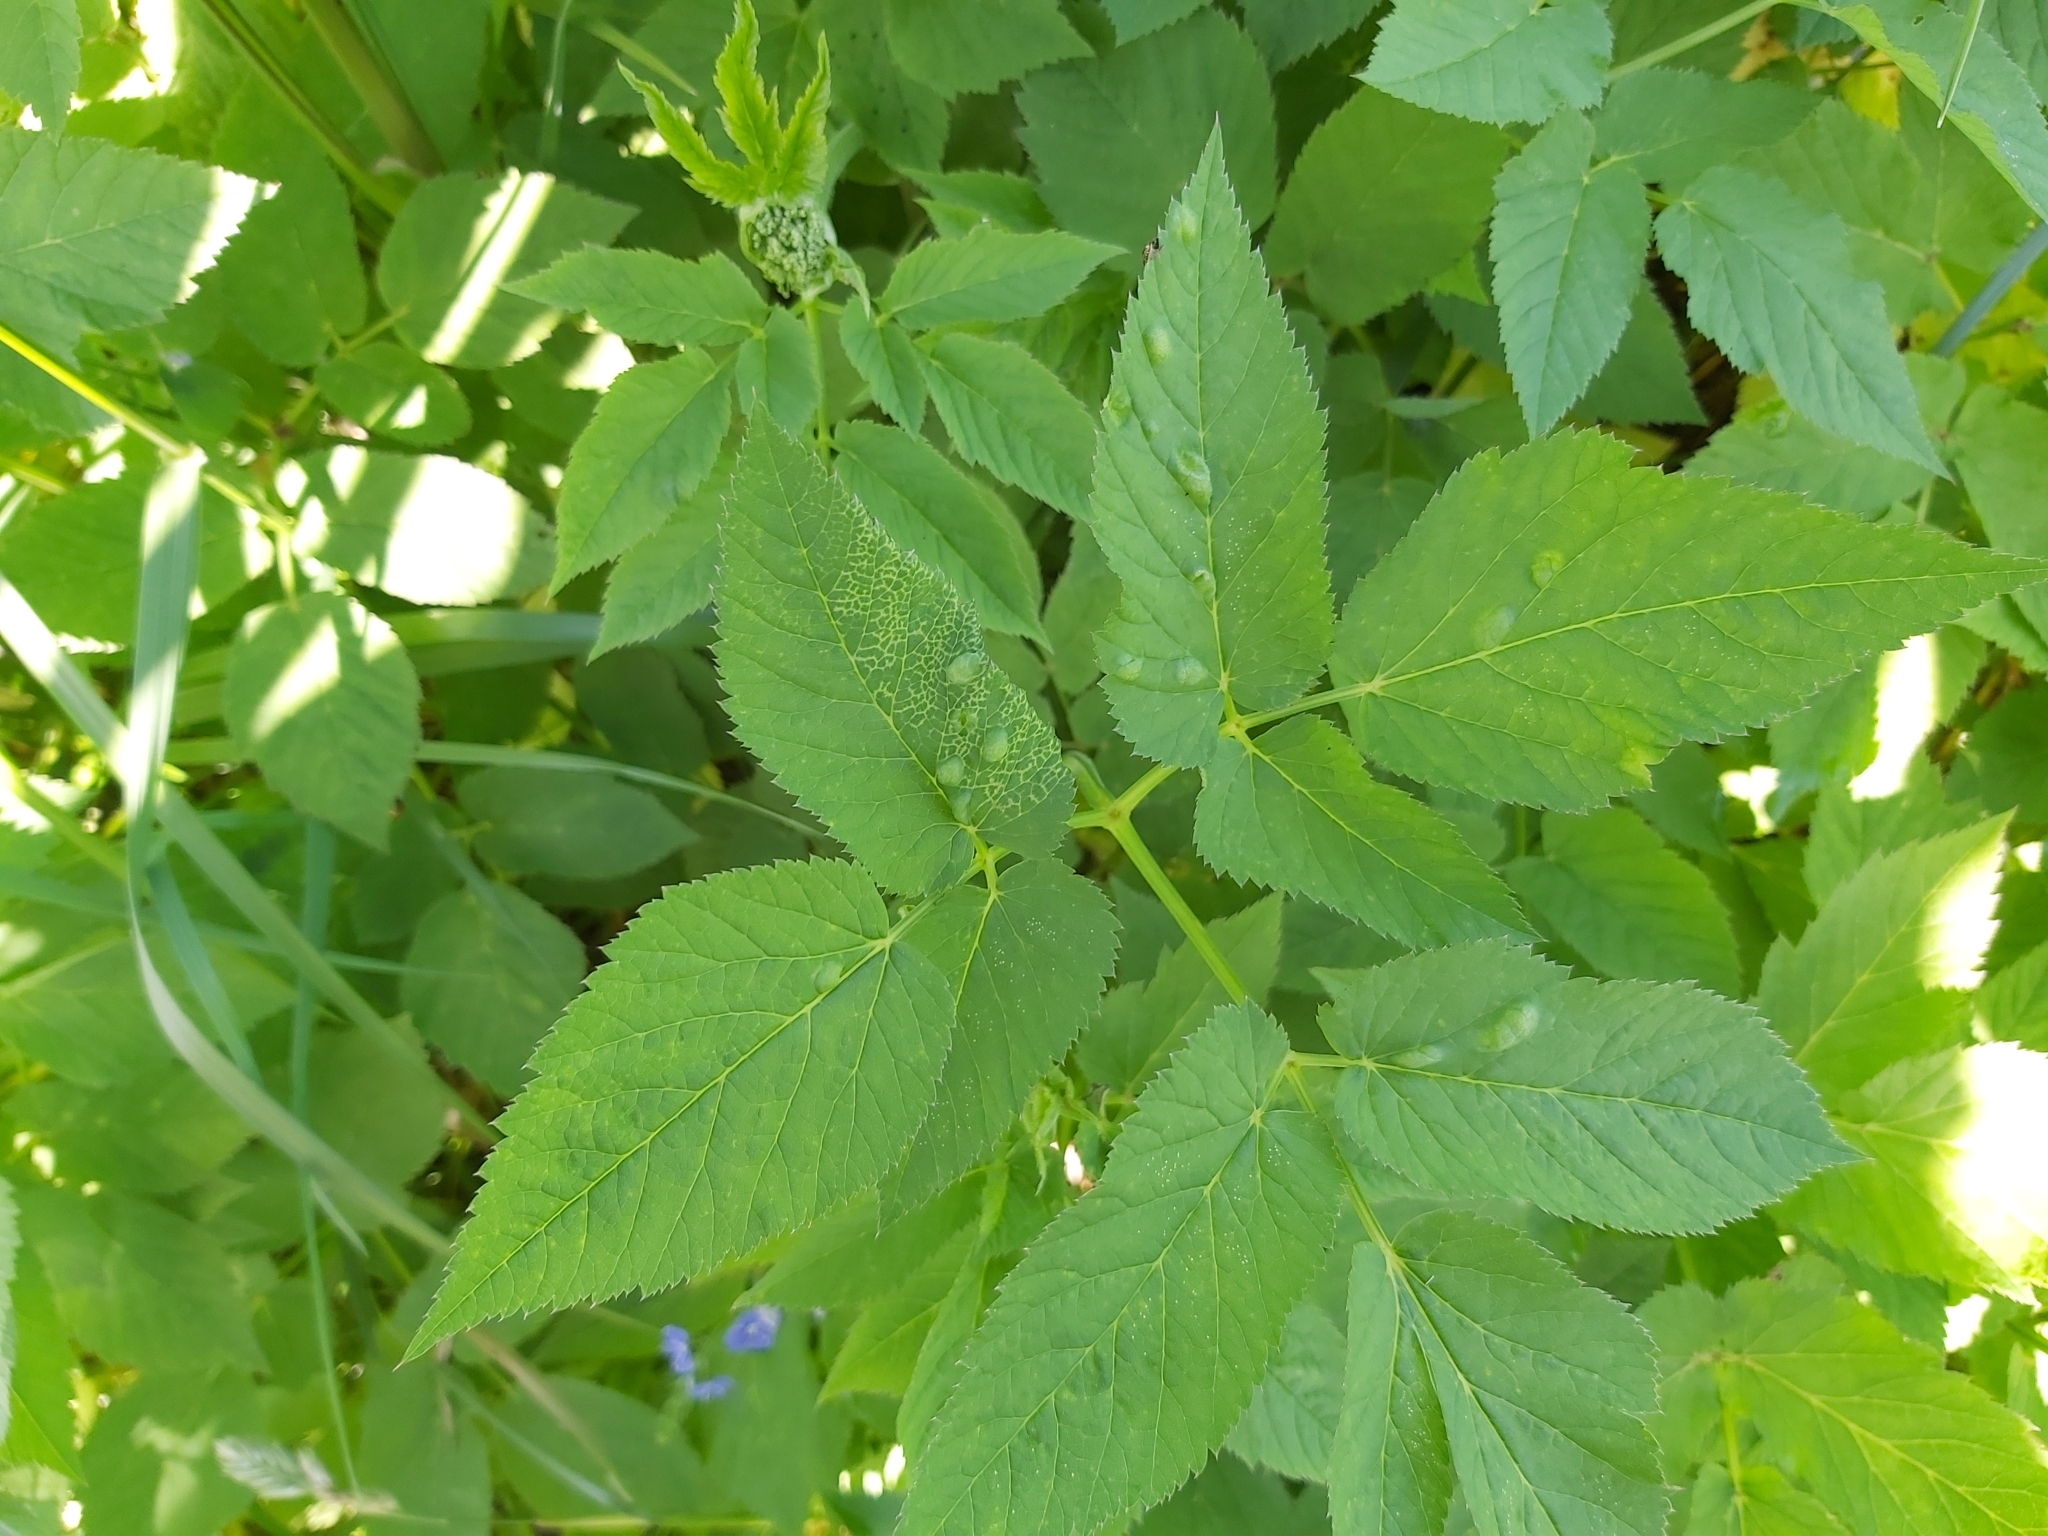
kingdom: Animalia
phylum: Arthropoda
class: Insecta
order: Hemiptera
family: Triozidae
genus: Trioza
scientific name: Trioza flavipennis
